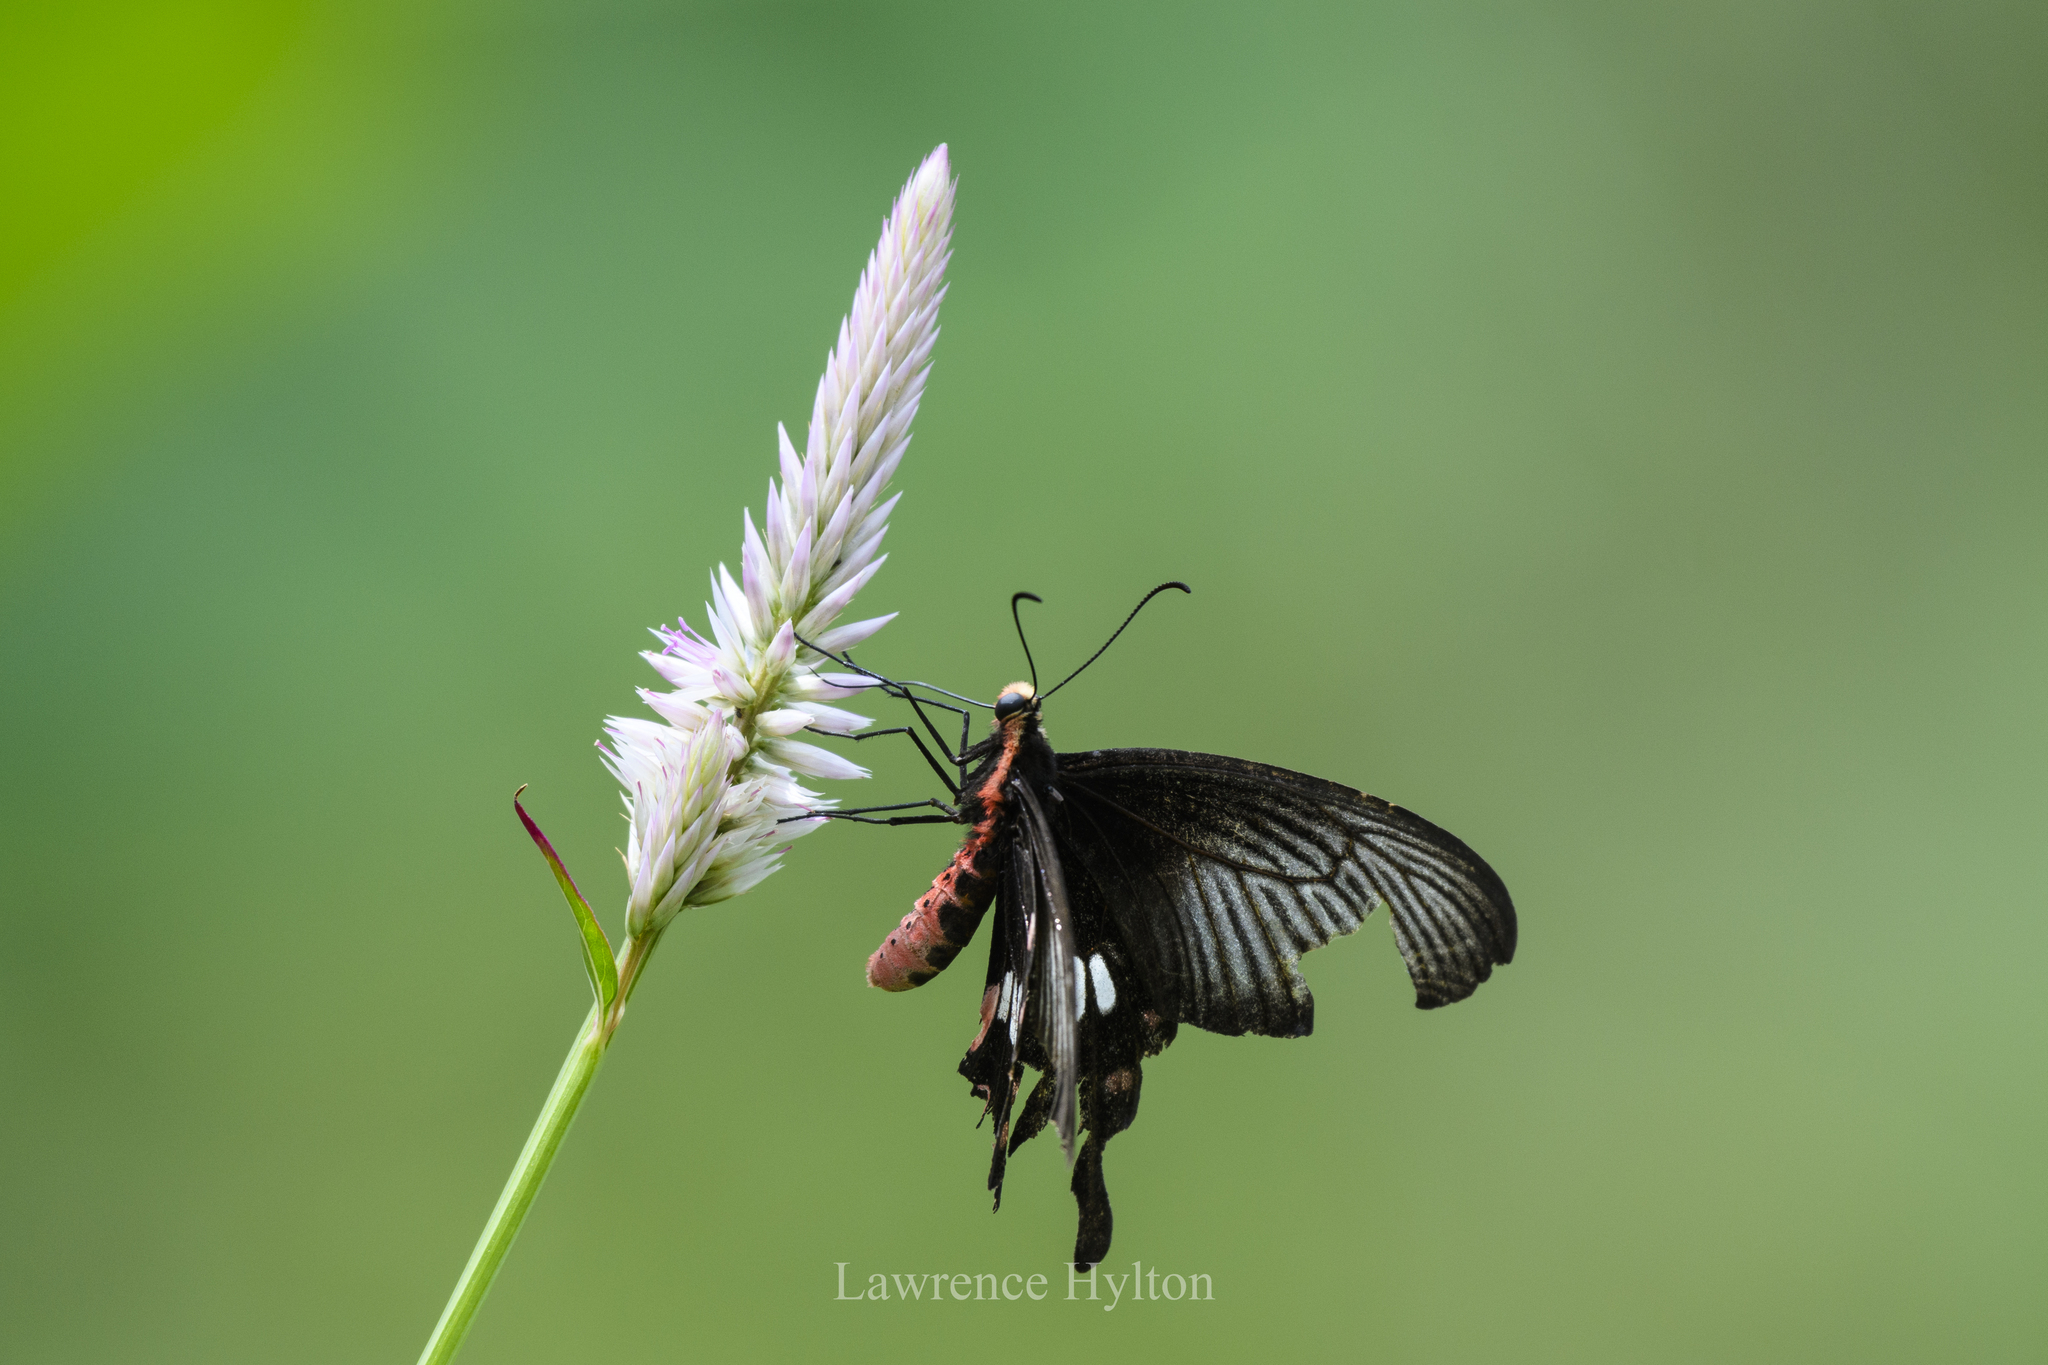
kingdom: Animalia
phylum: Arthropoda
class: Insecta
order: Lepidoptera
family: Papilionidae
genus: Pachliopta
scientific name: Pachliopta aristolochiae
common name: Common rose
